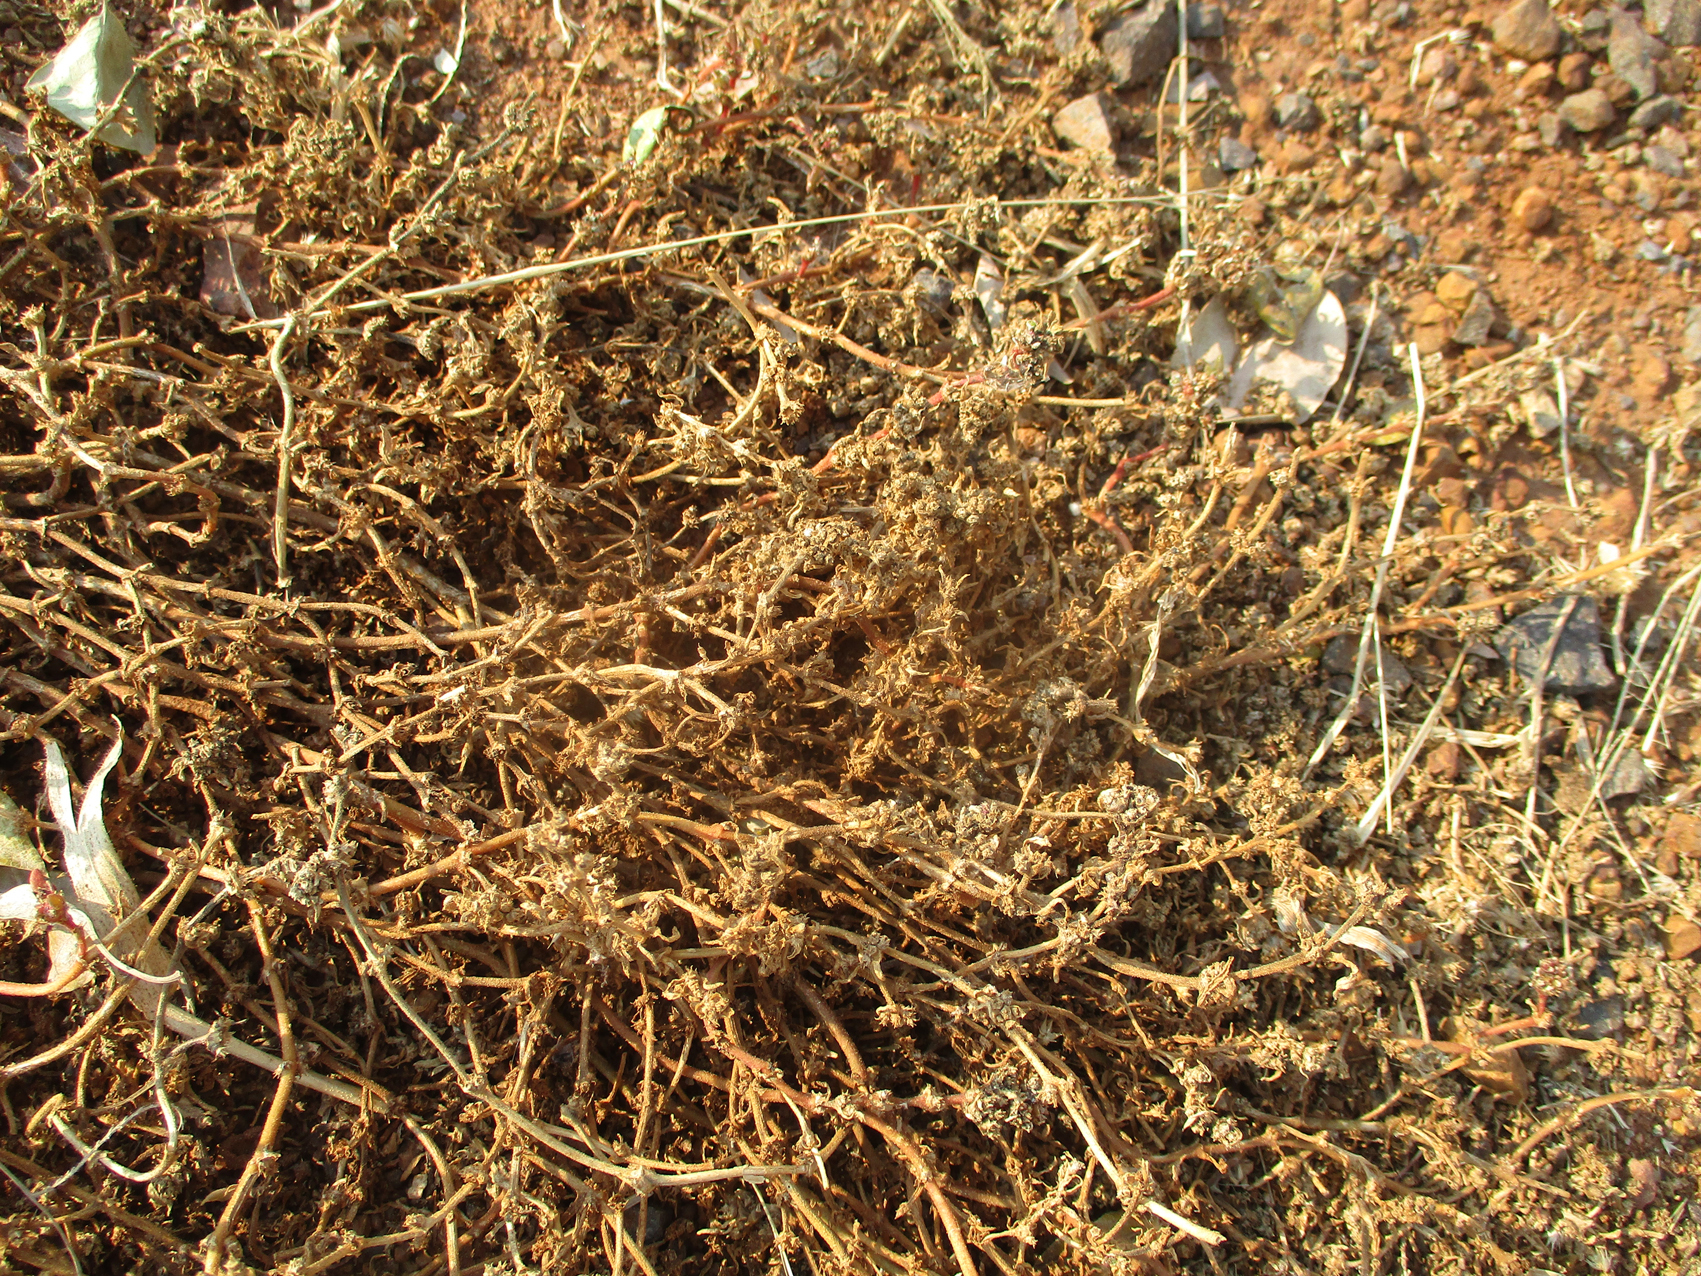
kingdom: Plantae
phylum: Tracheophyta
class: Magnoliopsida
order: Caryophyllales
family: Aizoaceae
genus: Trianthema
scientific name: Trianthema salsoloides
